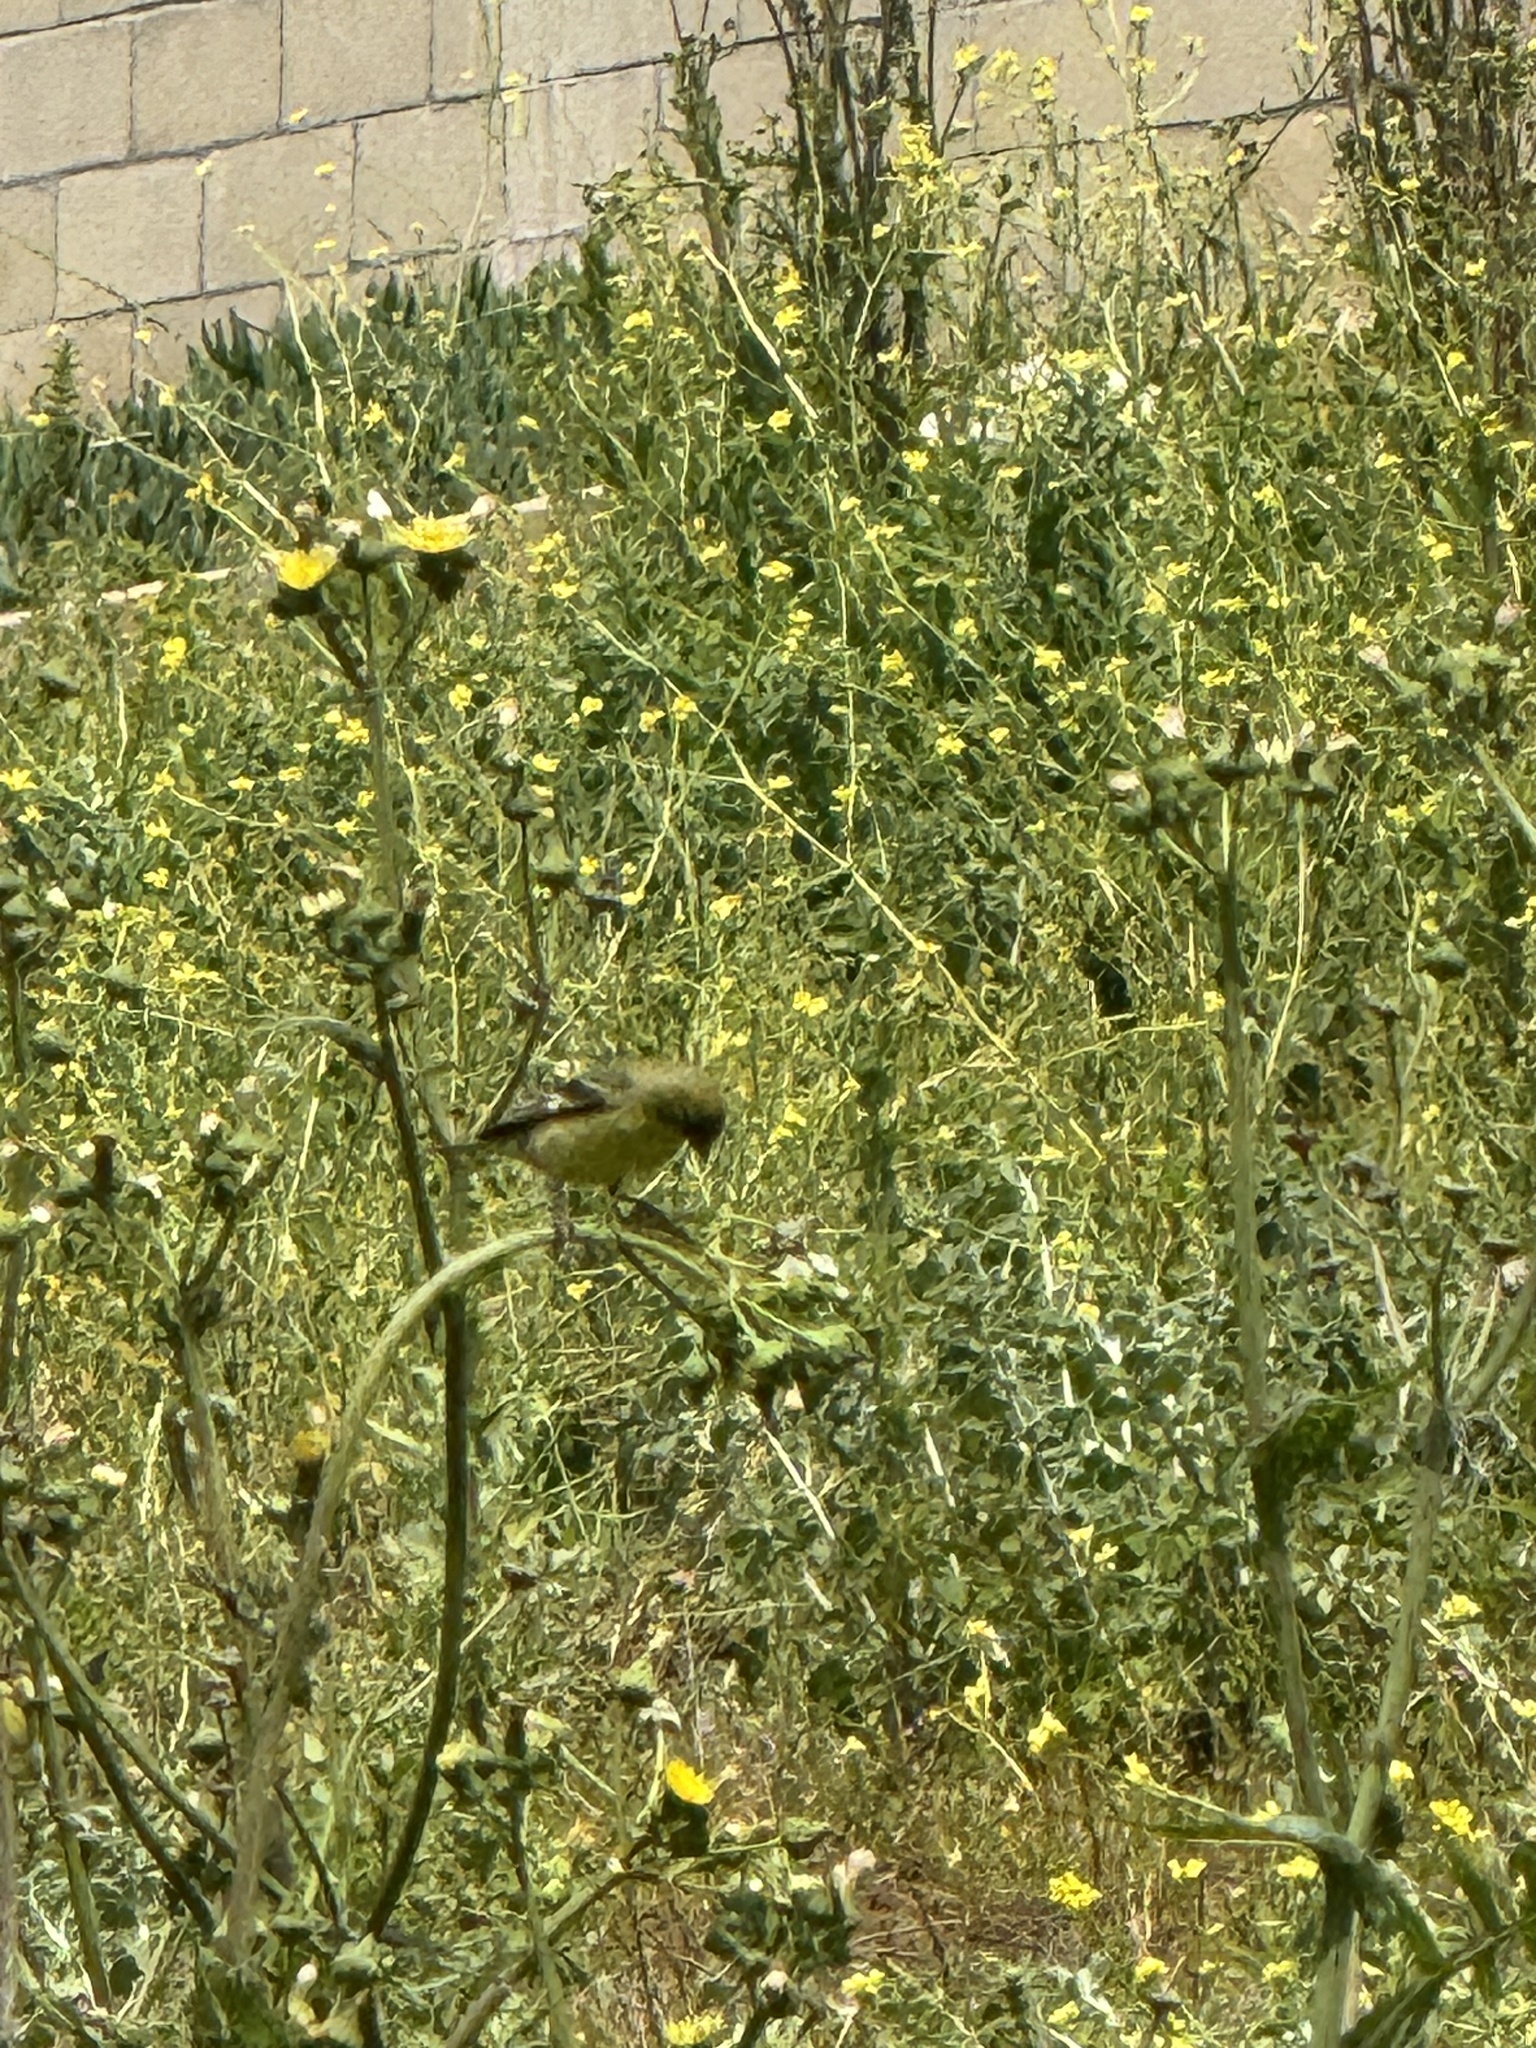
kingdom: Animalia
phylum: Chordata
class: Aves
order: Passeriformes
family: Fringillidae
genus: Spinus
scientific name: Spinus psaltria
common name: Lesser goldfinch
